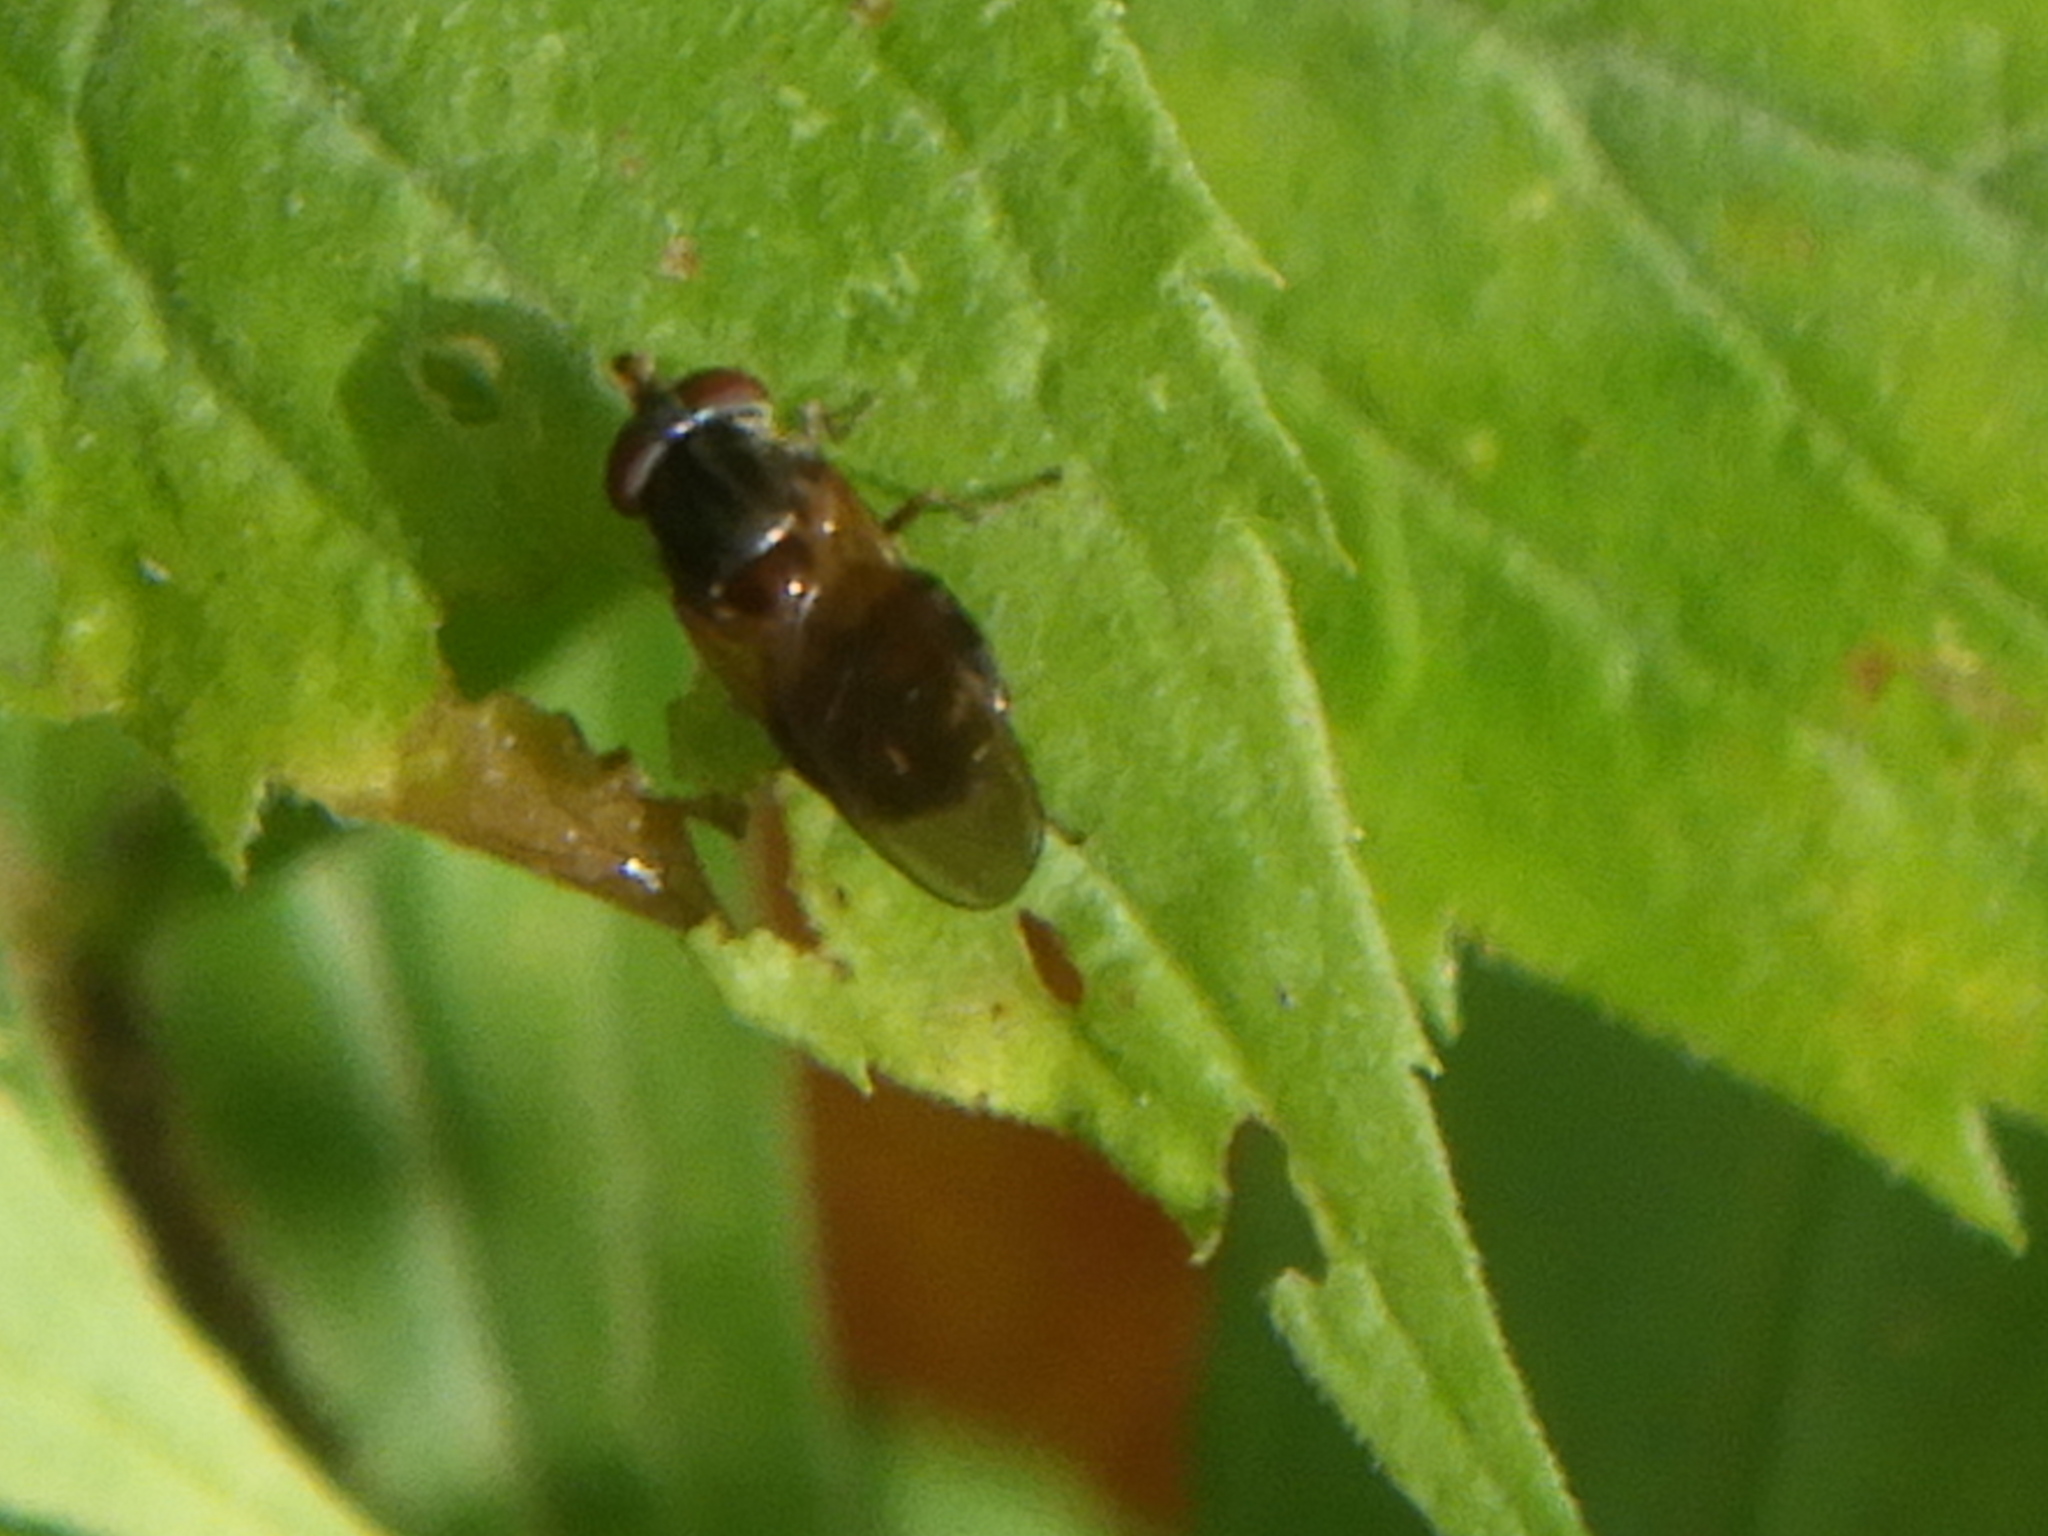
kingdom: Animalia
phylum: Arthropoda
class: Insecta
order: Diptera
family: Syrphidae
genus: Rhingia
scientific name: Rhingia nasica
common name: American snout fly
